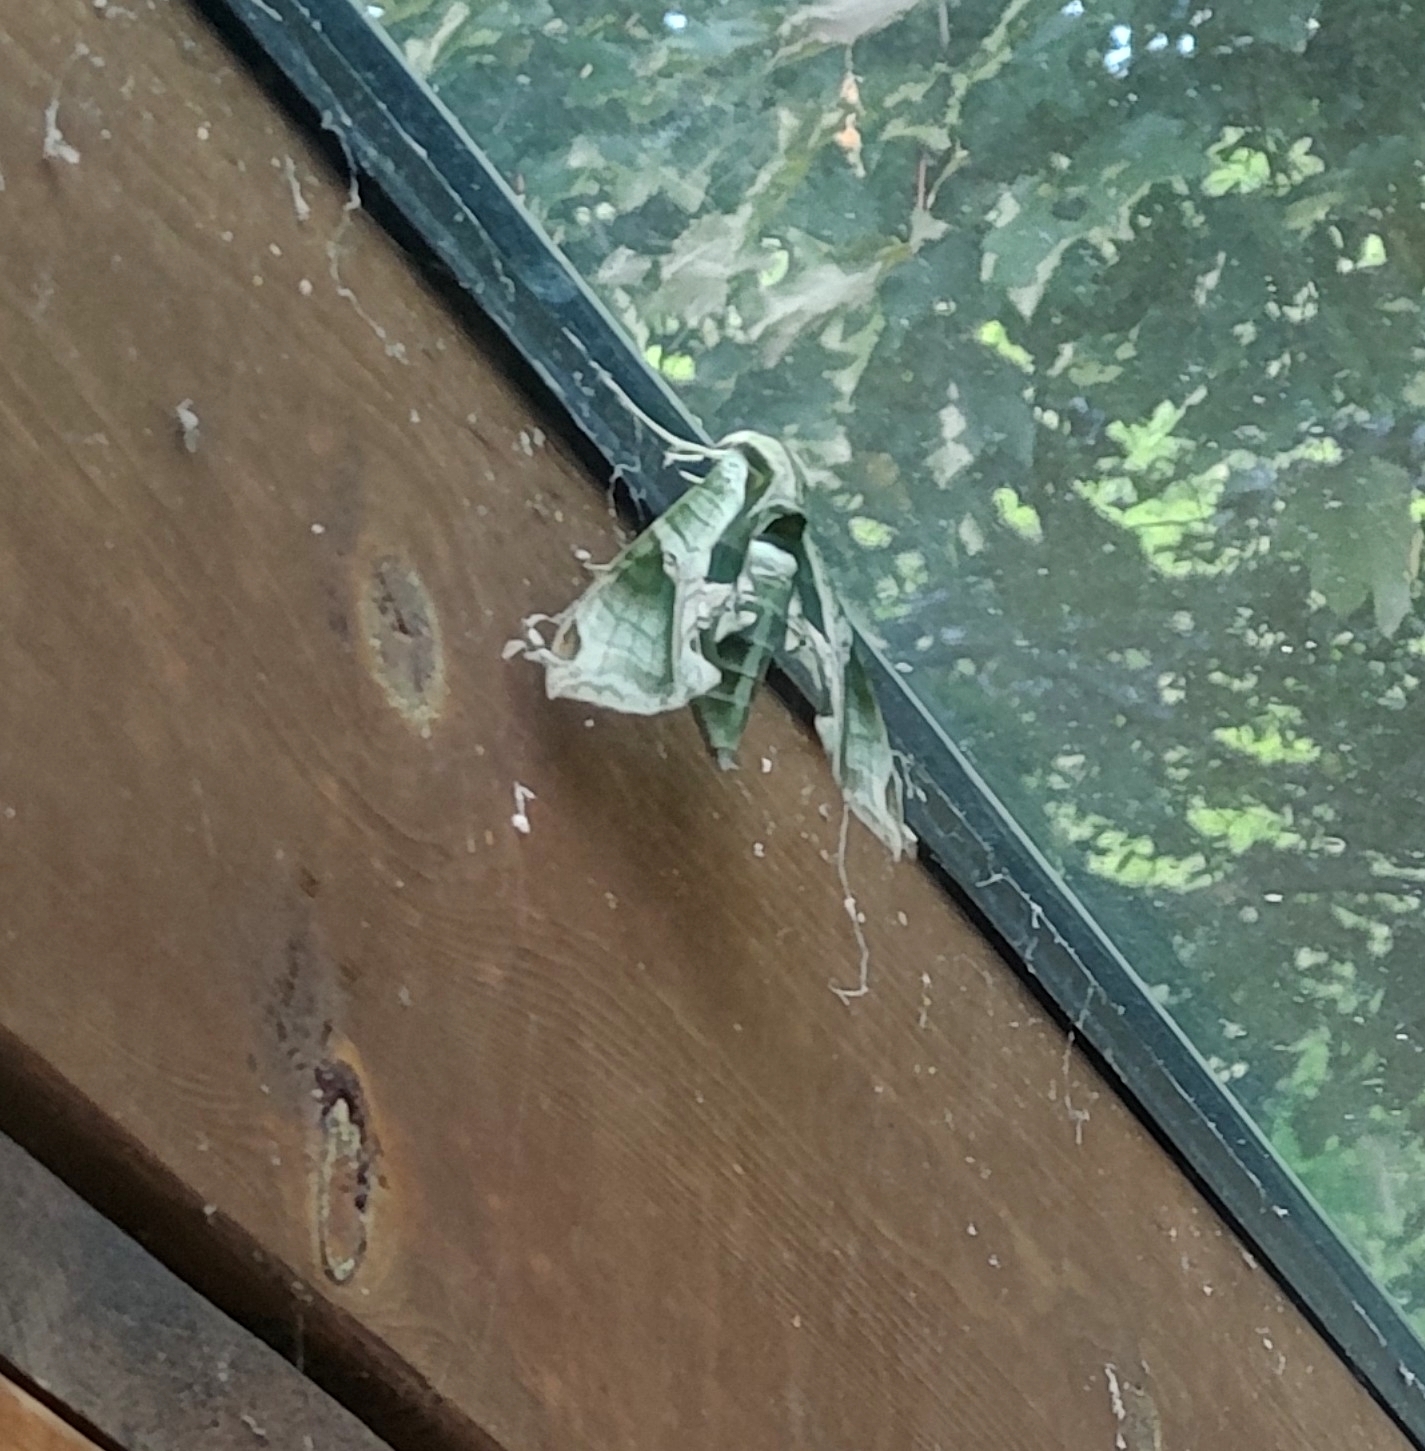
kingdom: Animalia
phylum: Arthropoda
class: Insecta
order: Lepidoptera
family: Sphingidae
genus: Eumorpha
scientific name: Eumorpha pandorus
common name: Pandora sphinx
